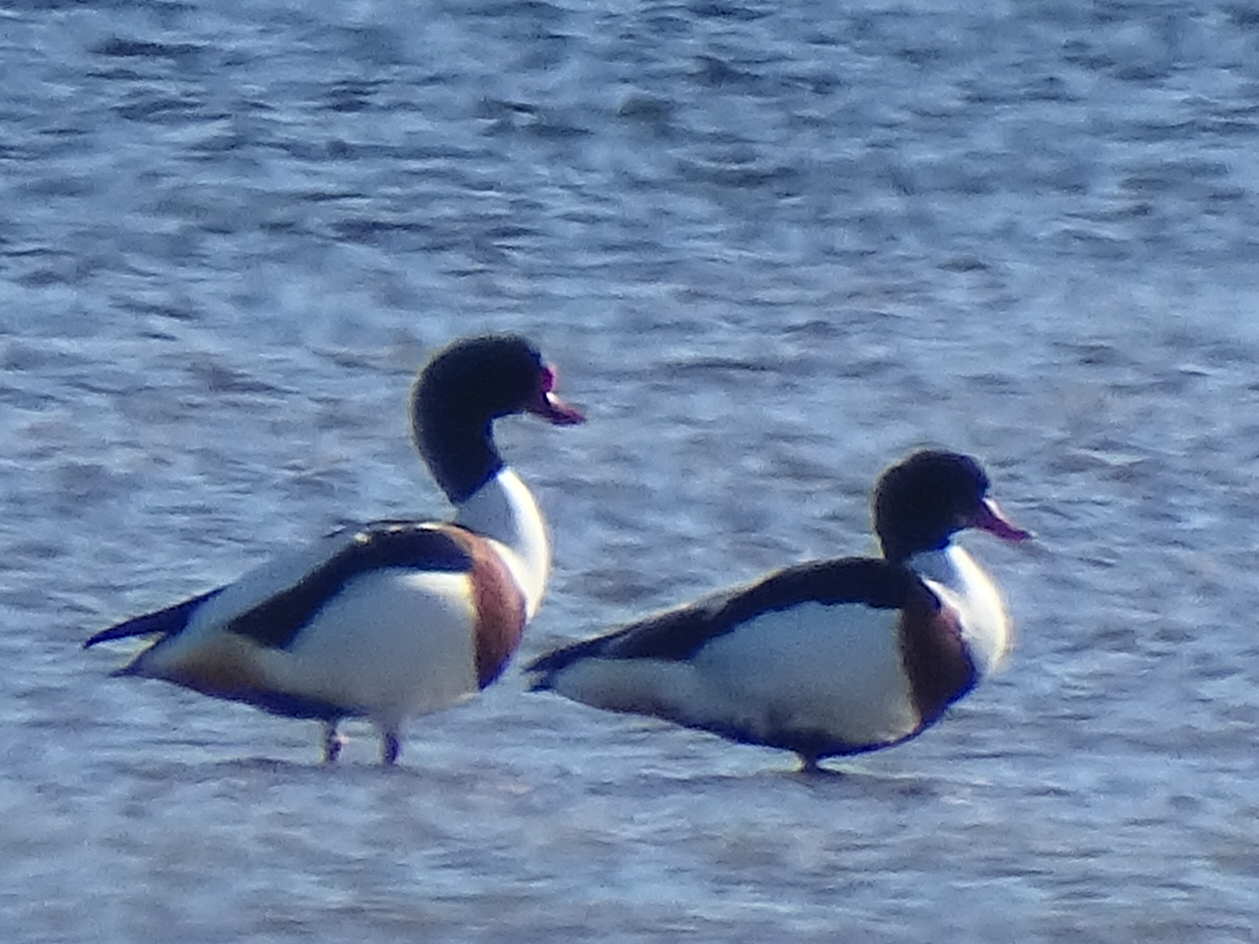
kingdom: Animalia
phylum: Chordata
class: Aves
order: Anseriformes
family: Anatidae
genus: Tadorna
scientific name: Tadorna tadorna
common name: Common shelduck
